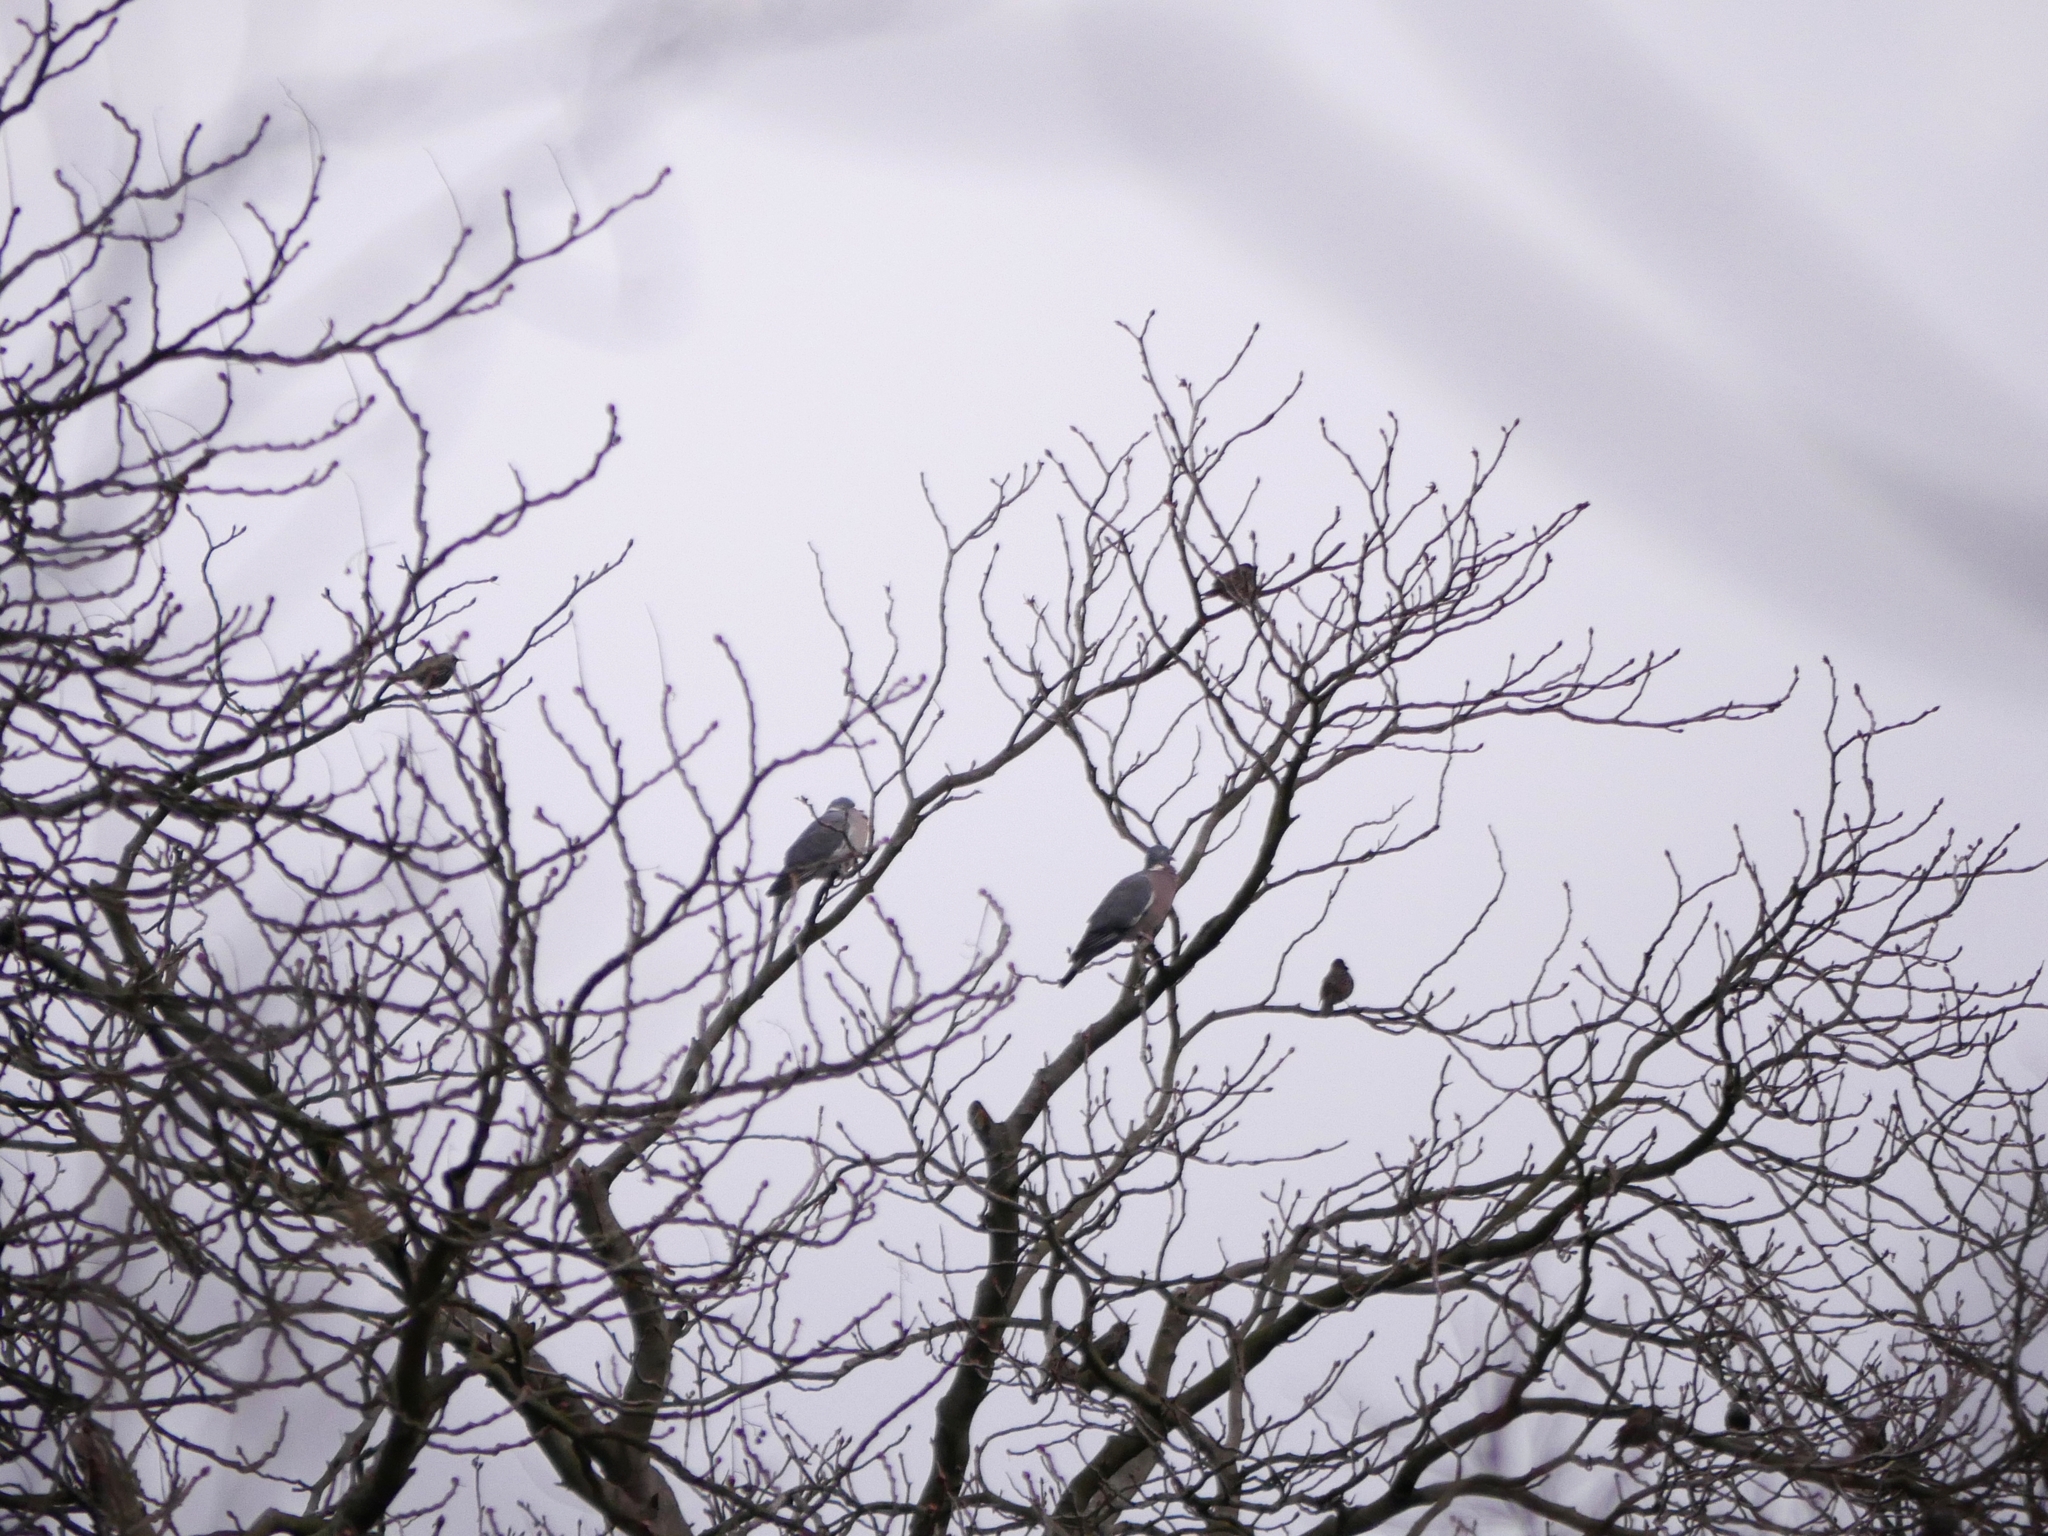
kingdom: Animalia
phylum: Chordata
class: Aves
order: Columbiformes
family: Columbidae
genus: Columba
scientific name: Columba palumbus
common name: Common wood pigeon
